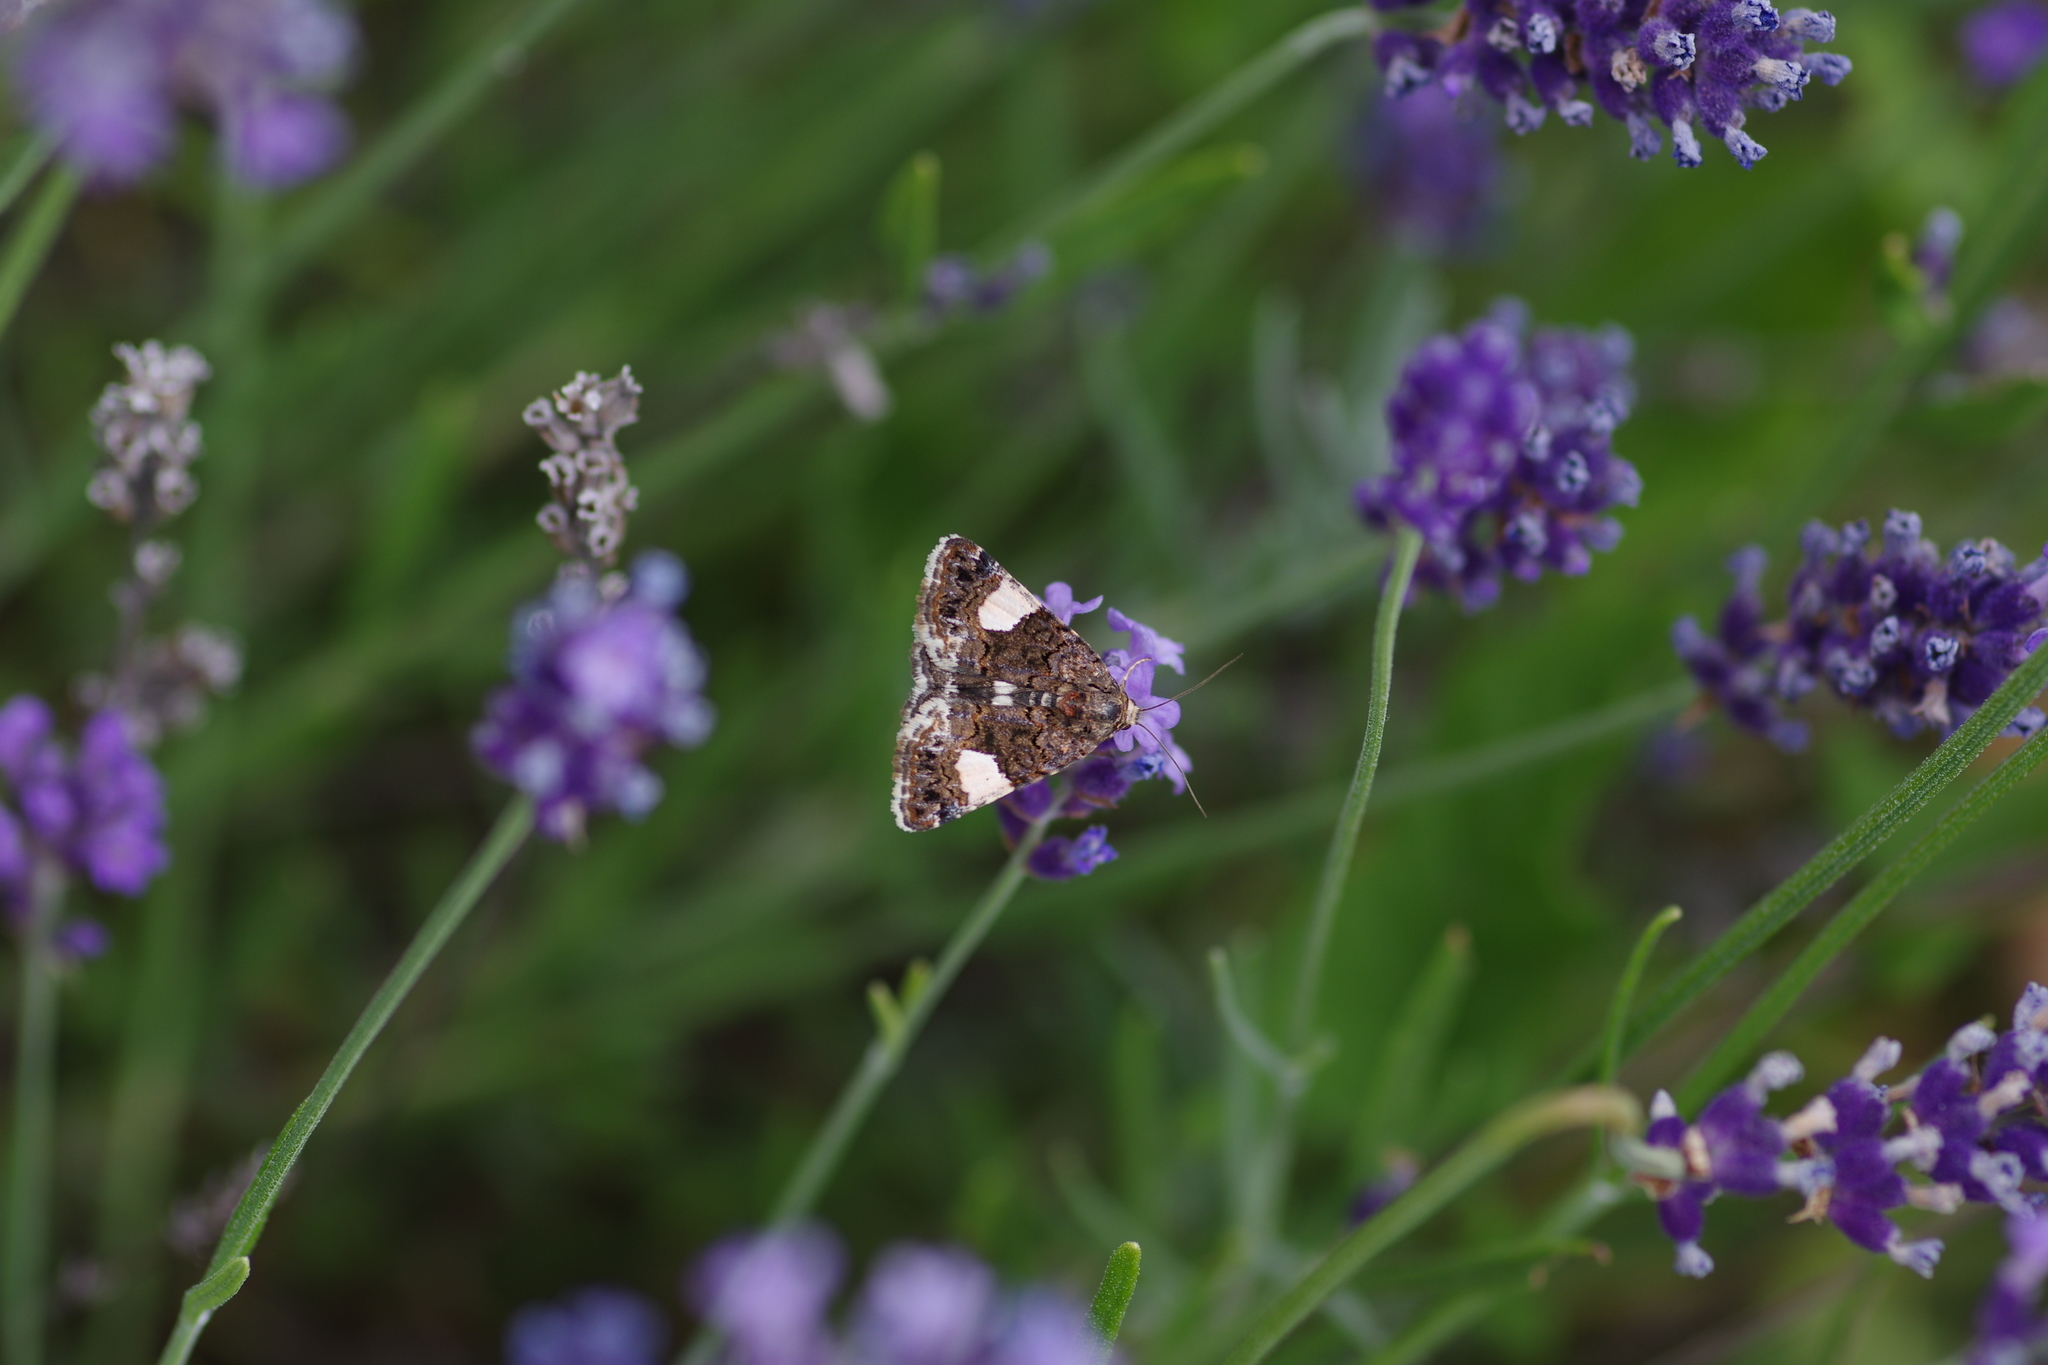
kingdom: Animalia
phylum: Arthropoda
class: Insecta
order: Lepidoptera
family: Erebidae
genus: Tyta
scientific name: Tyta luctuosa
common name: Four-spotted
